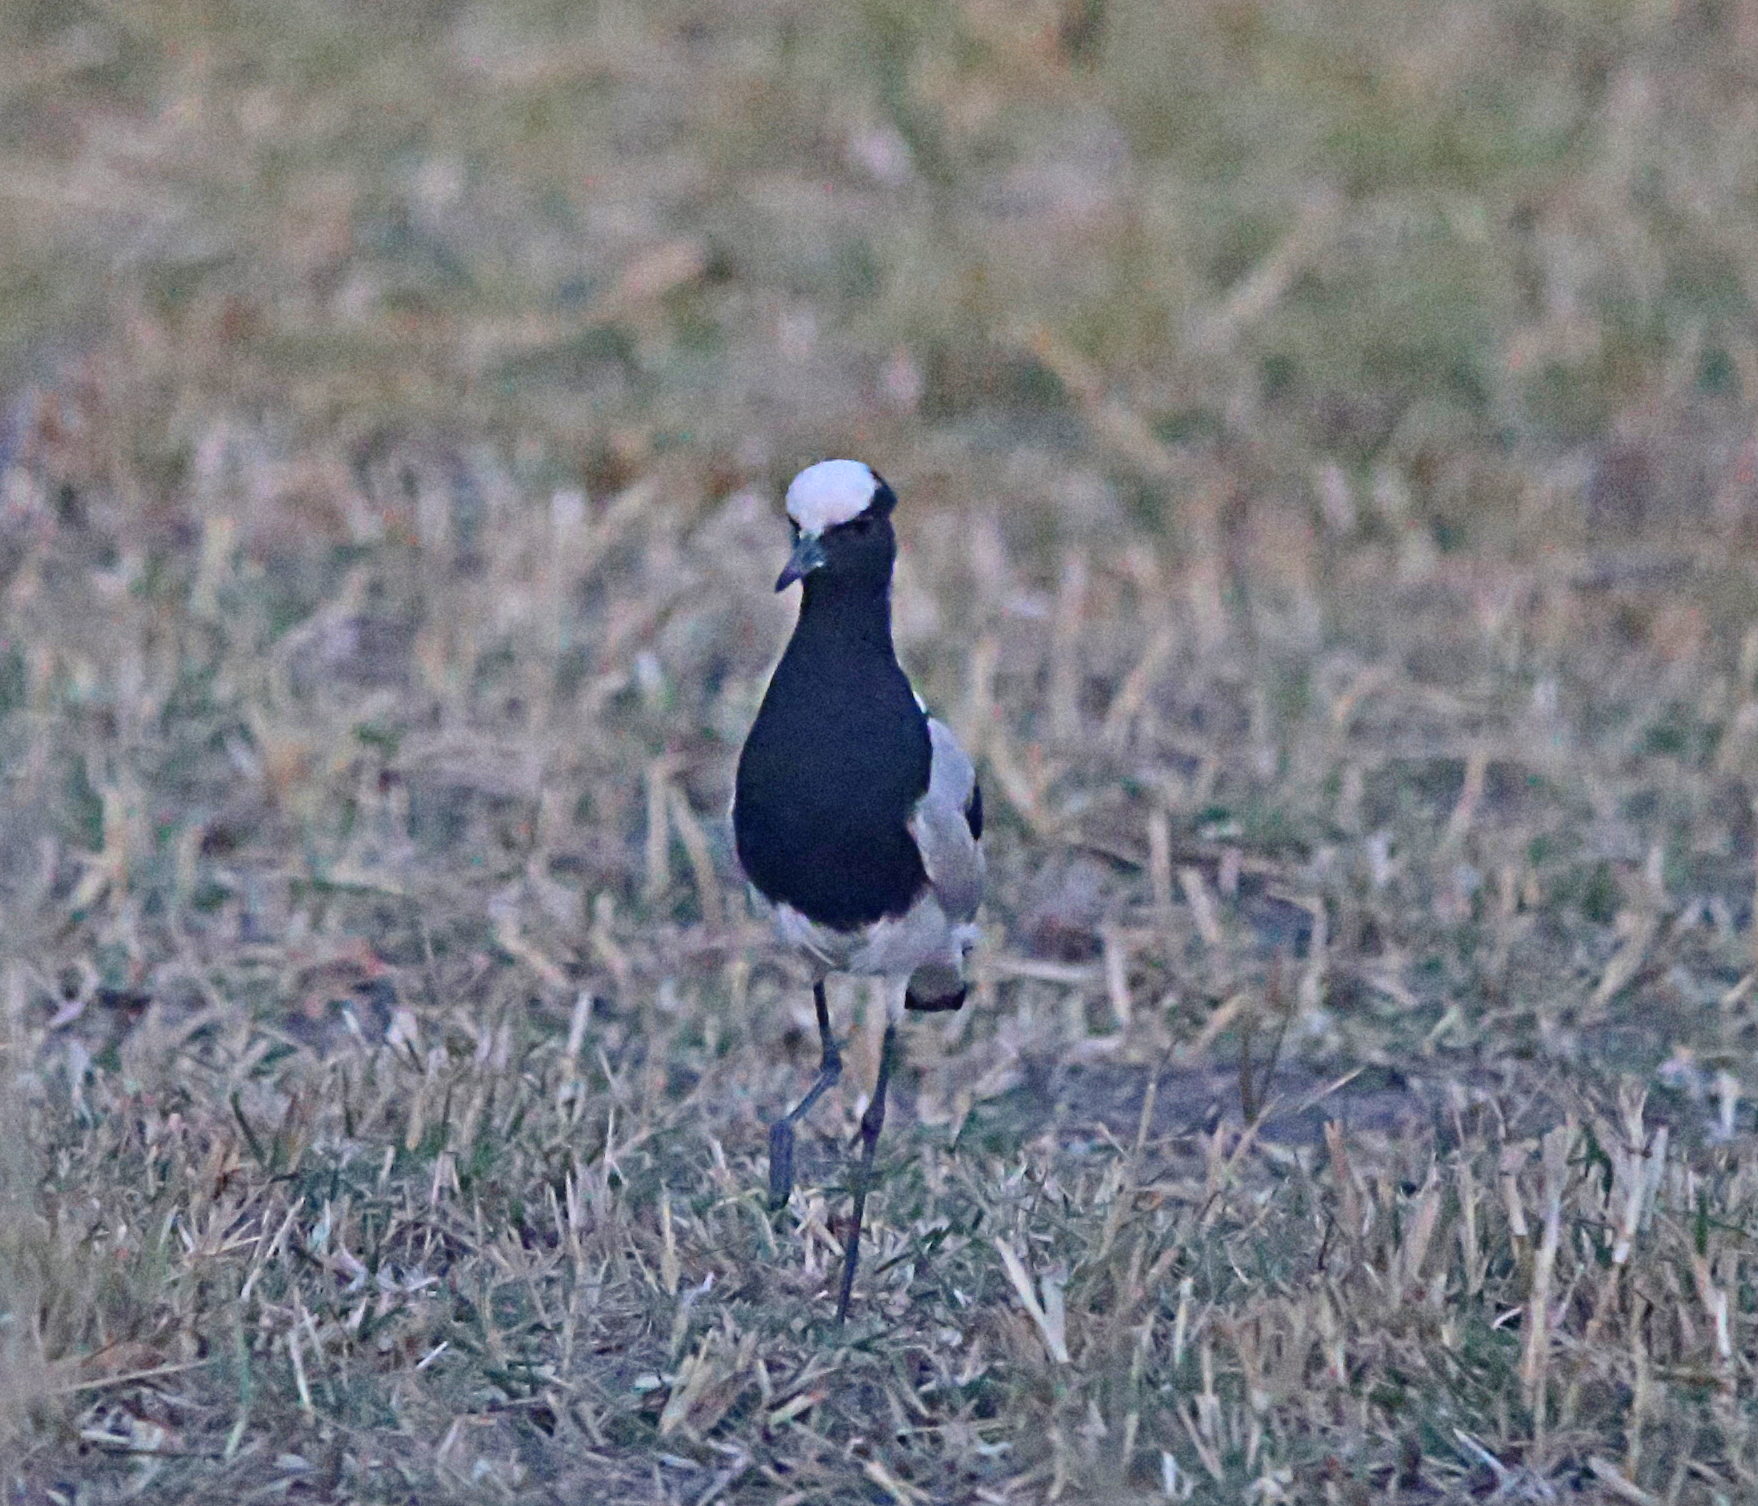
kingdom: Animalia
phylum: Chordata
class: Aves
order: Charadriiformes
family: Charadriidae
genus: Vanellus
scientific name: Vanellus armatus
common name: Blacksmith lapwing
